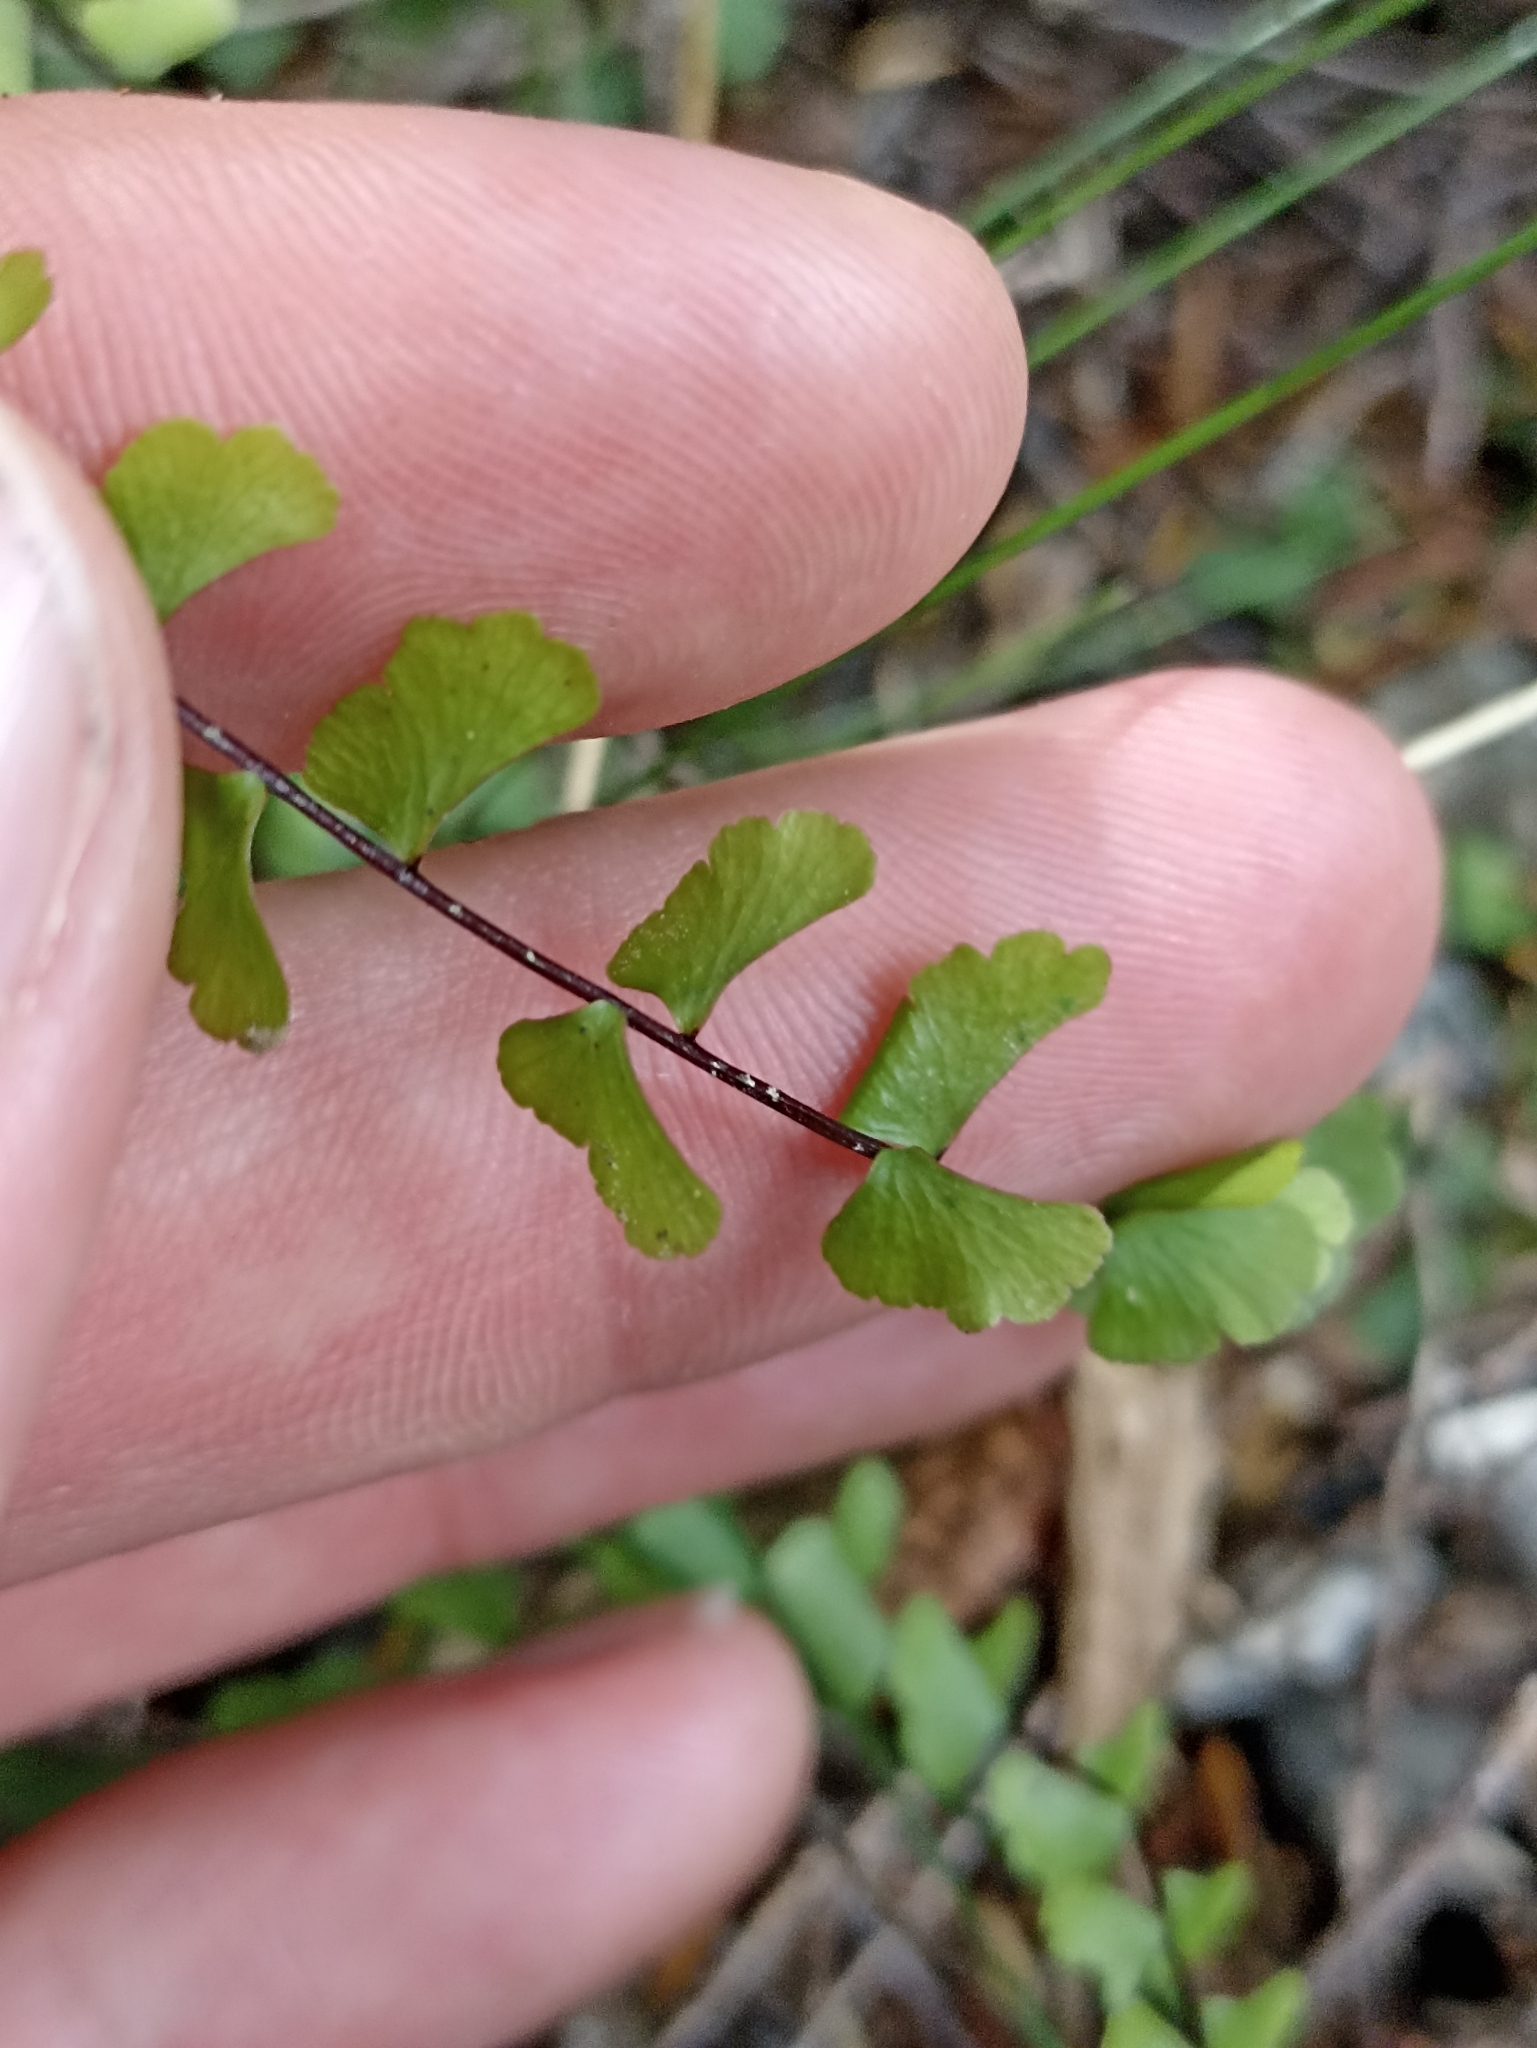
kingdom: Plantae
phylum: Tracheophyta
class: Polypodiopsida
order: Polypodiales
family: Lindsaeaceae
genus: Lindsaea
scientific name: Lindsaea linearis
